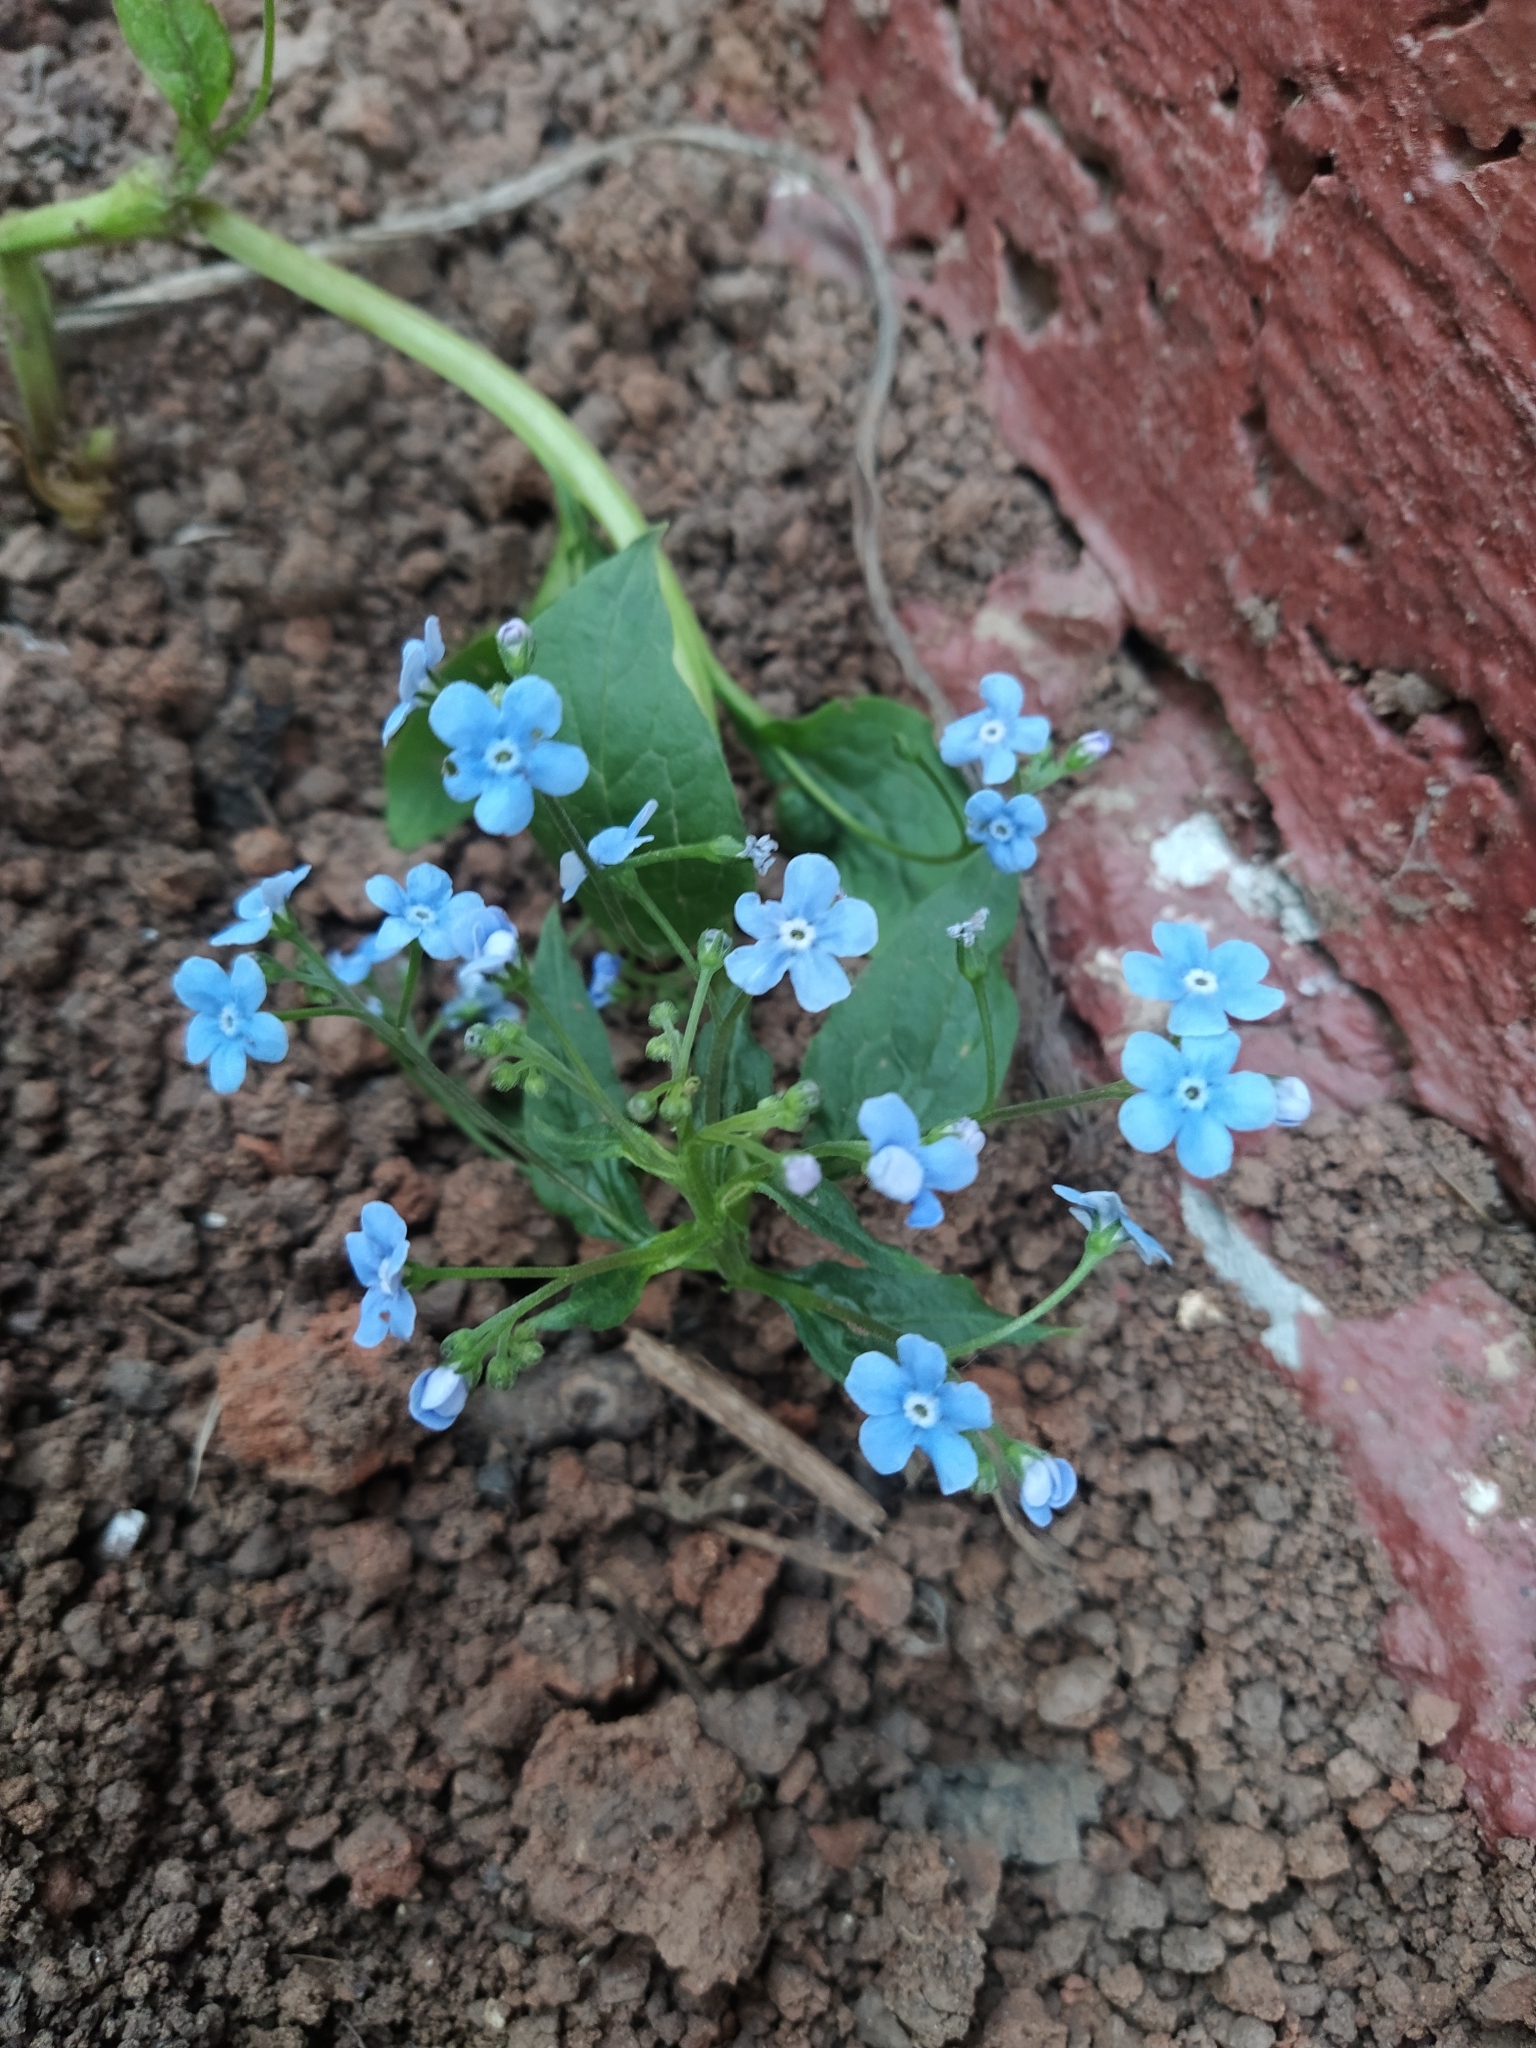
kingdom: Plantae
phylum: Tracheophyta
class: Magnoliopsida
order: Boraginales
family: Boraginaceae
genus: Brunnera
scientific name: Brunnera sibirica
